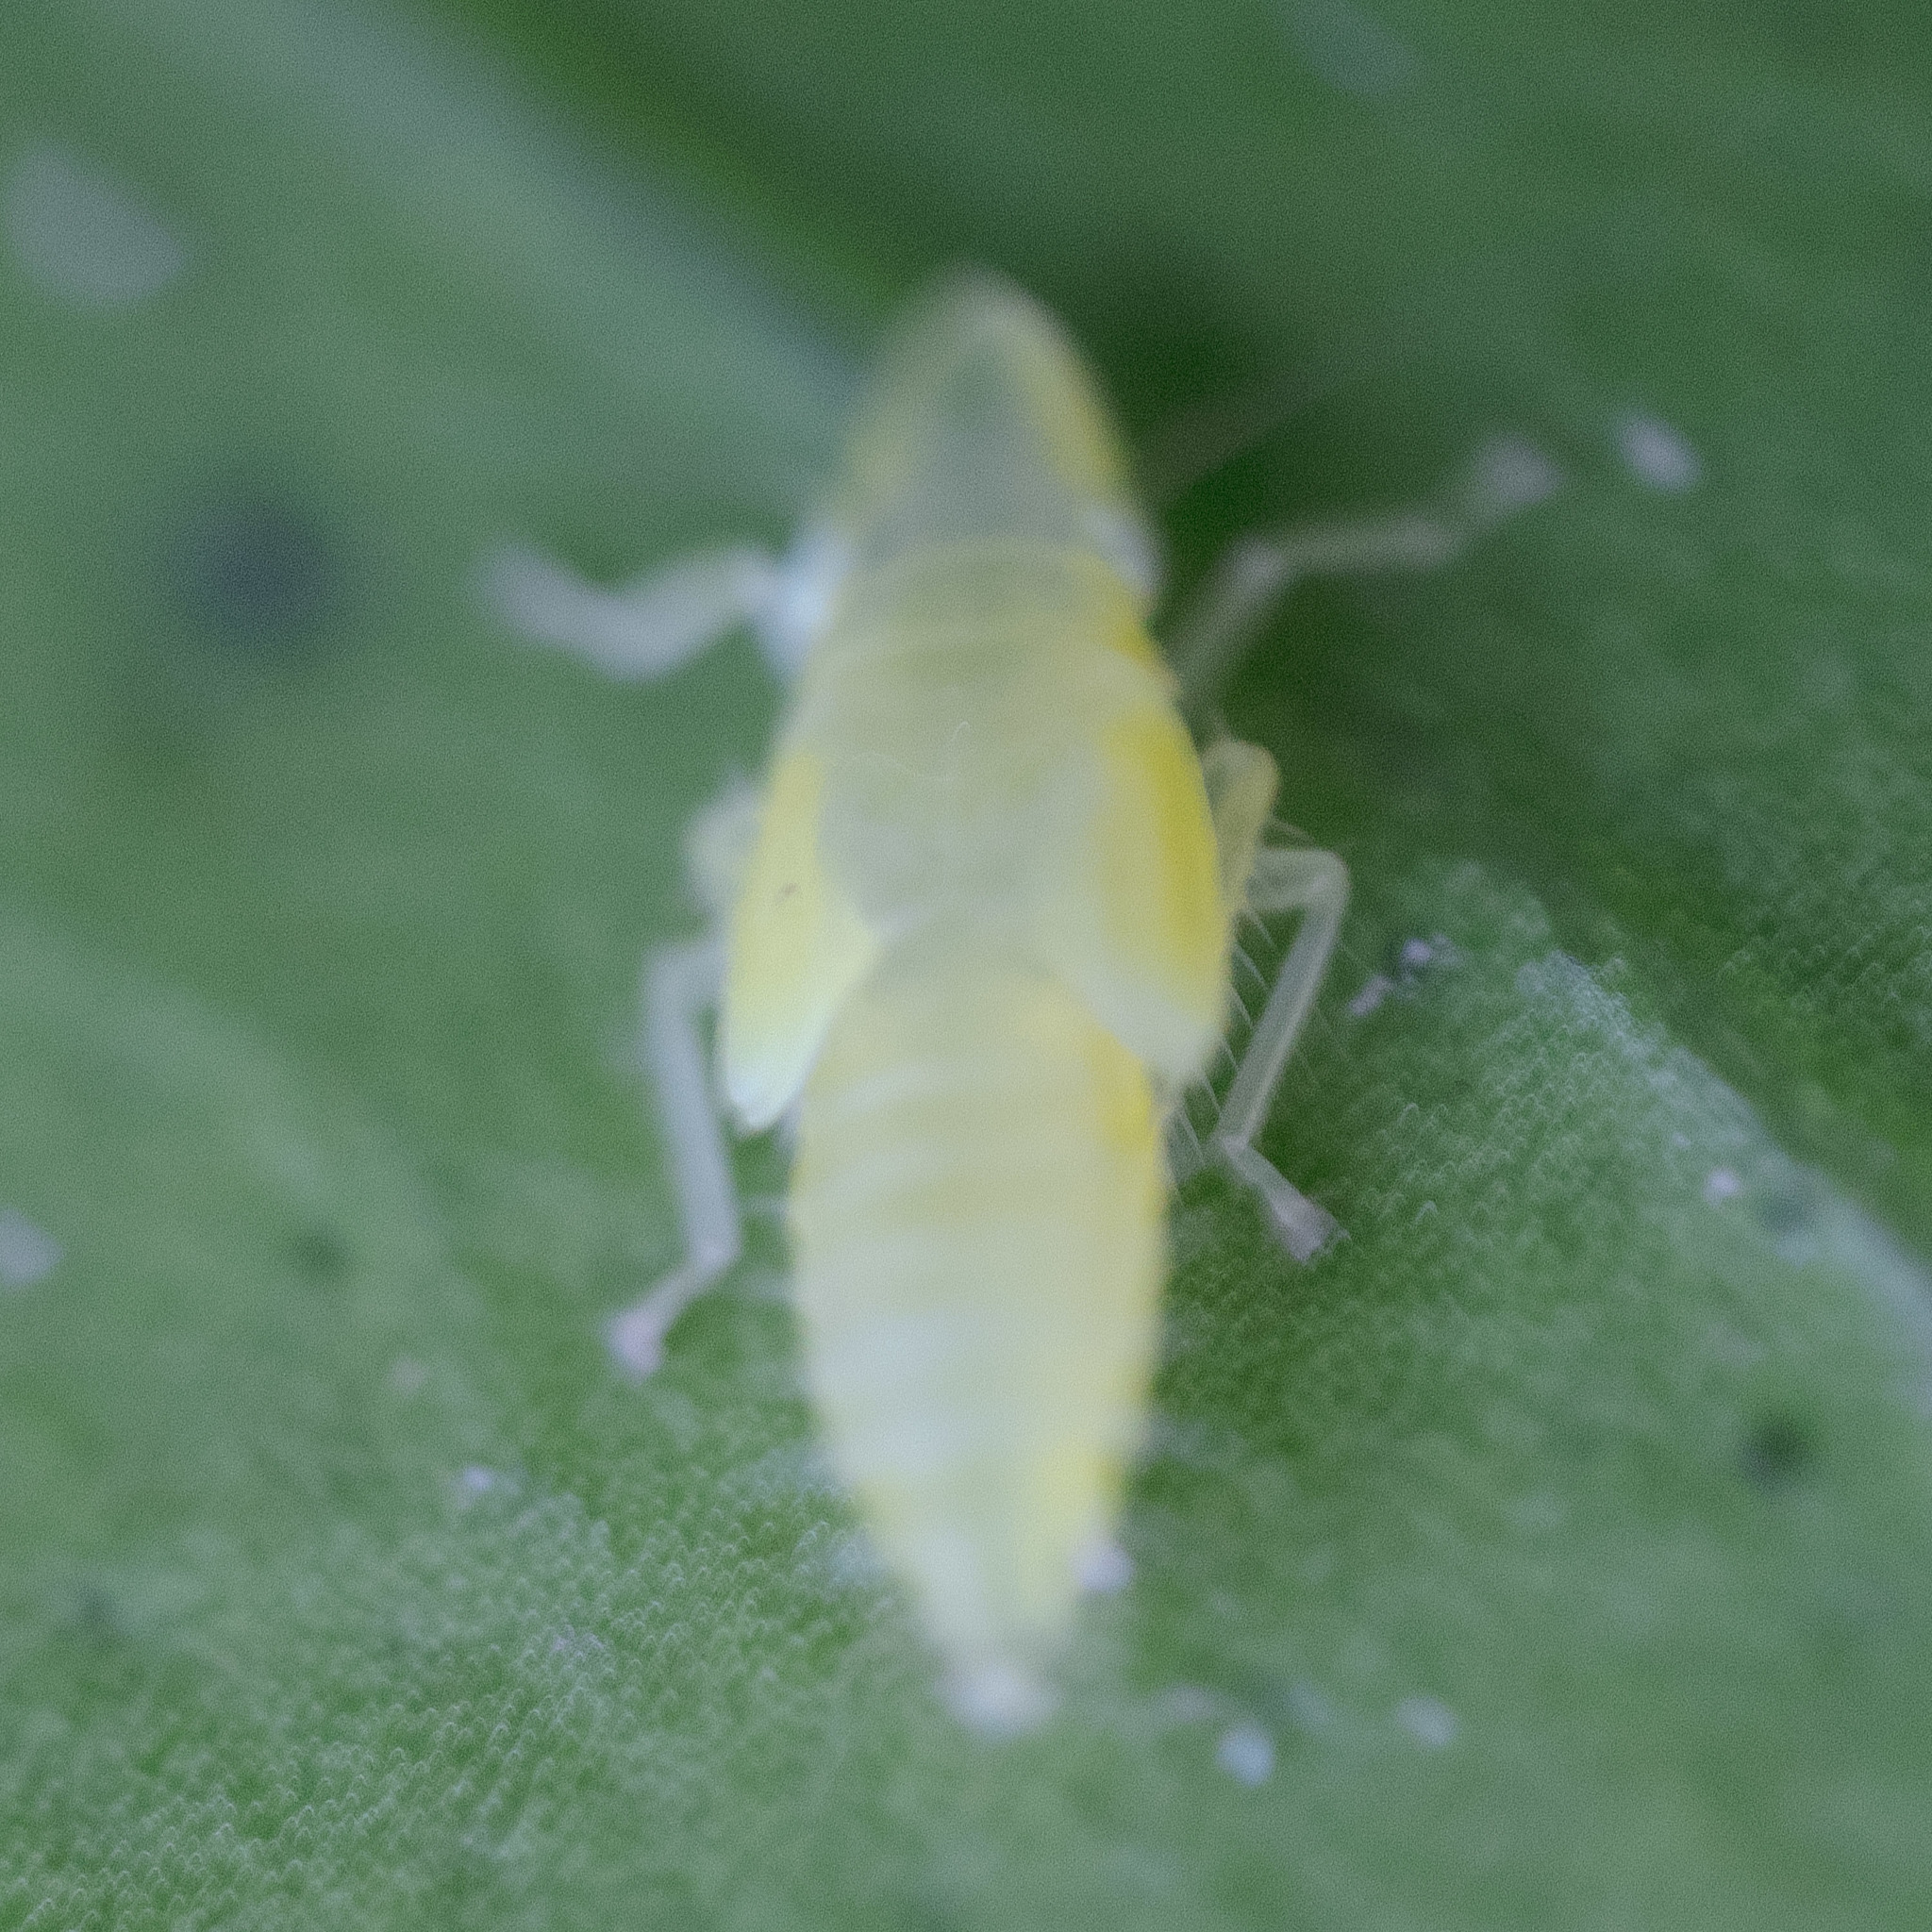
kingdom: Animalia
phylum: Arthropoda
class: Insecta
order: Hemiptera
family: Cicadellidae
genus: Sophonia
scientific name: Sophonia orientalis
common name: Two-spotted leafhopper
